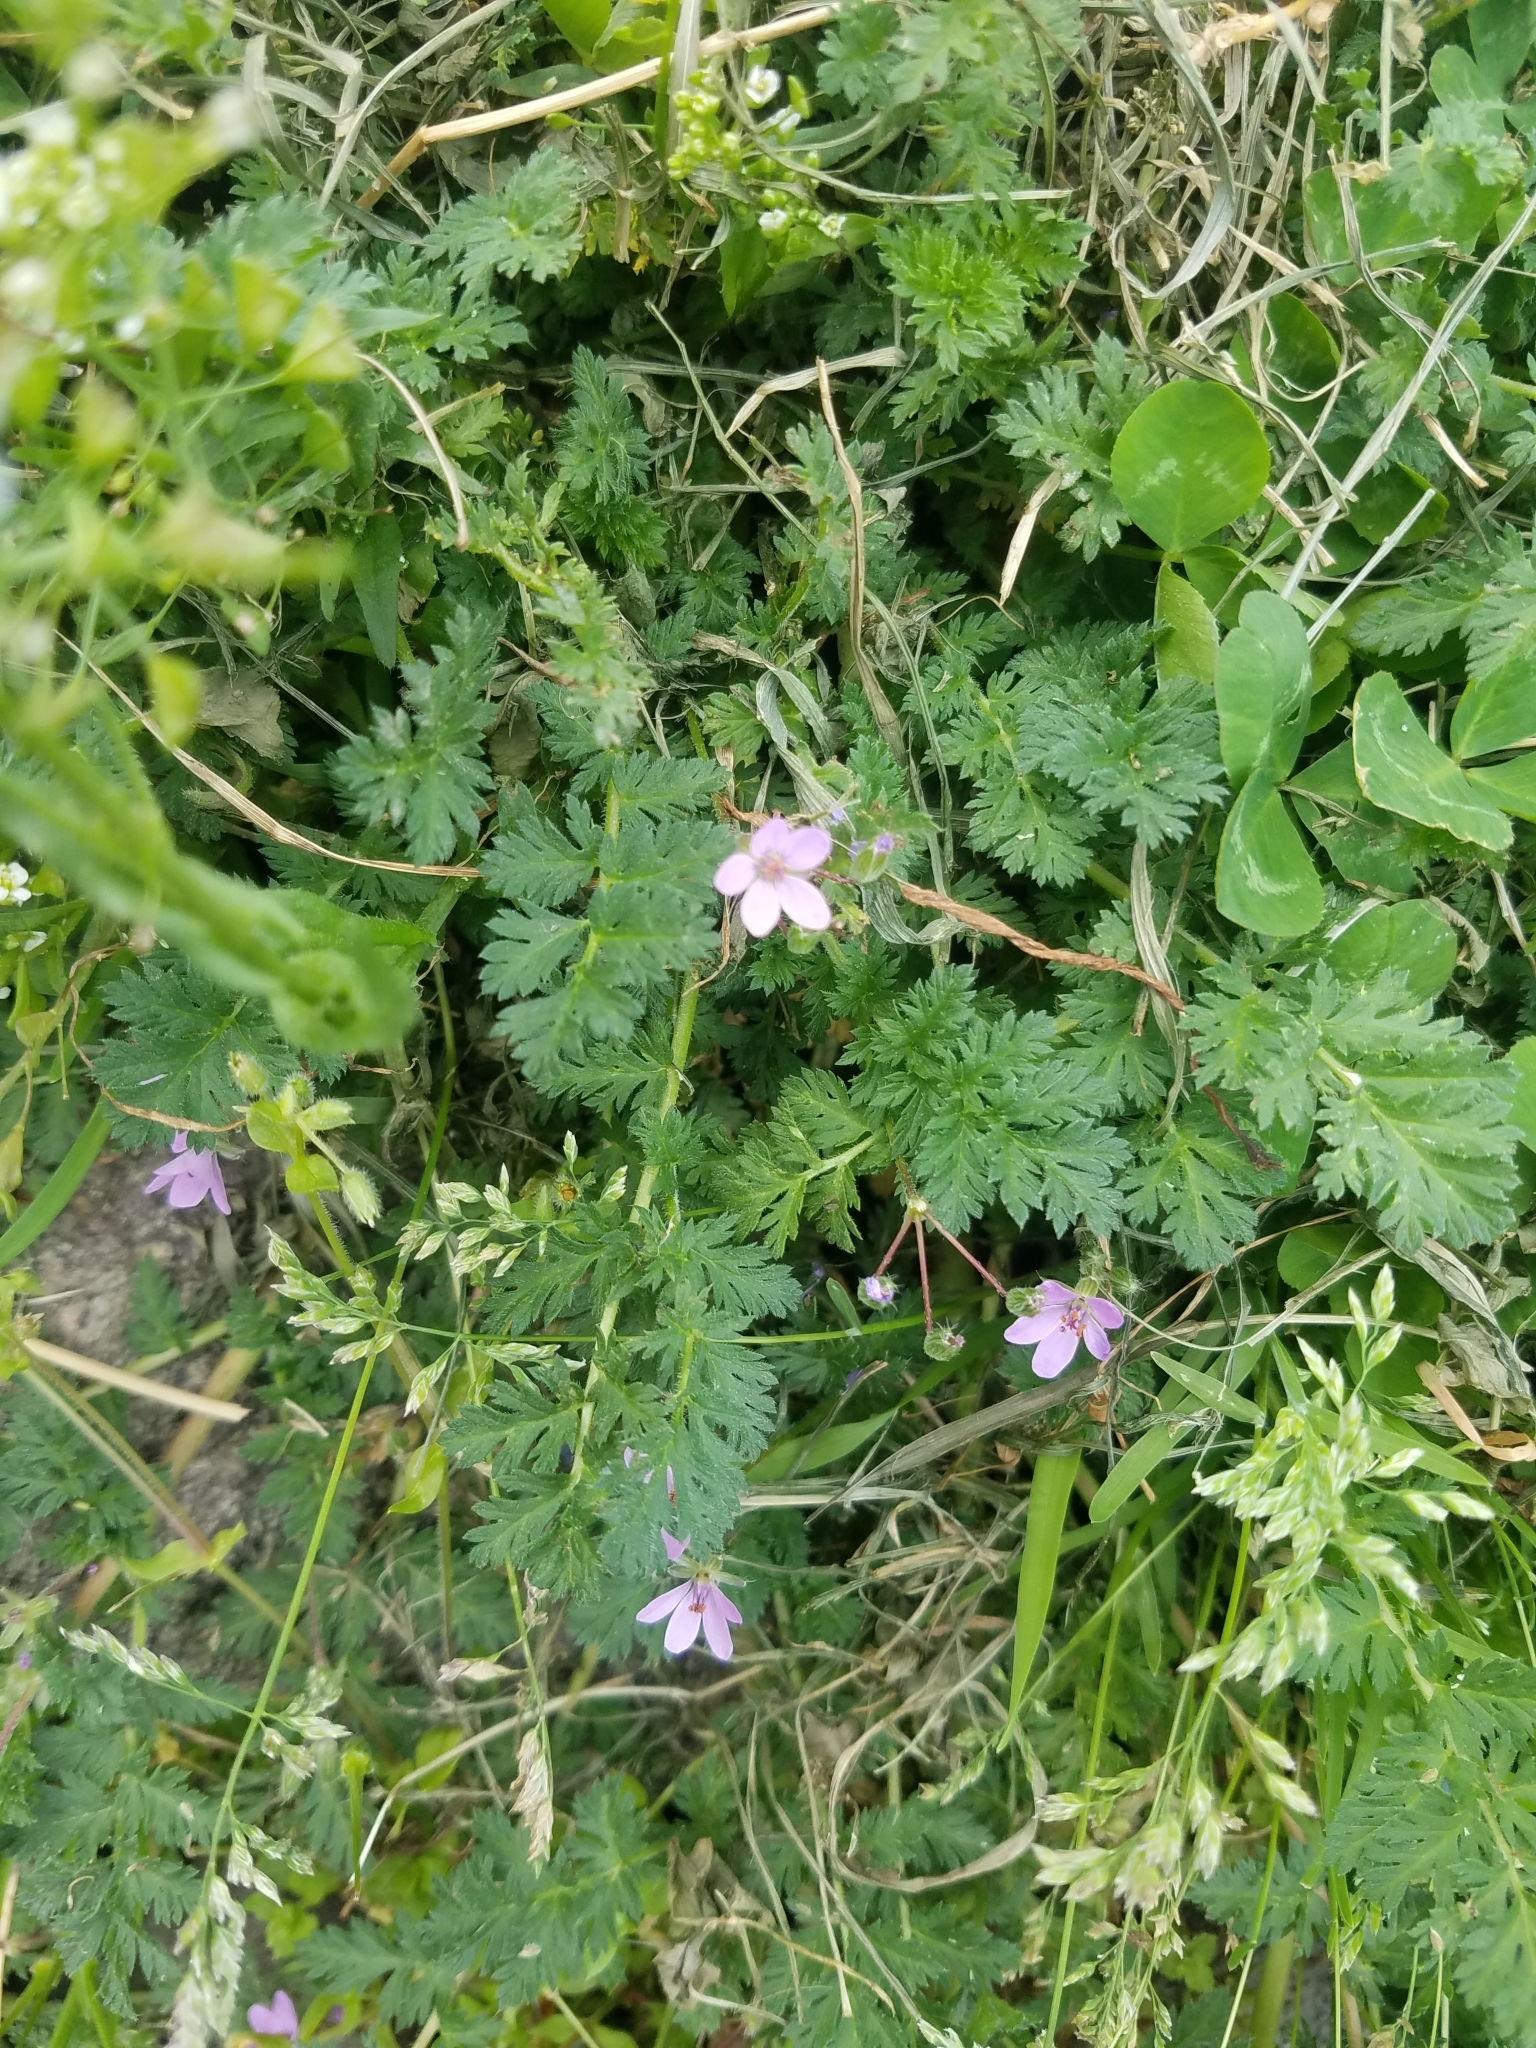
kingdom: Plantae
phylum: Tracheophyta
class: Magnoliopsida
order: Geraniales
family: Geraniaceae
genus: Erodium
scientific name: Erodium cicutarium
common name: Common stork's-bill
